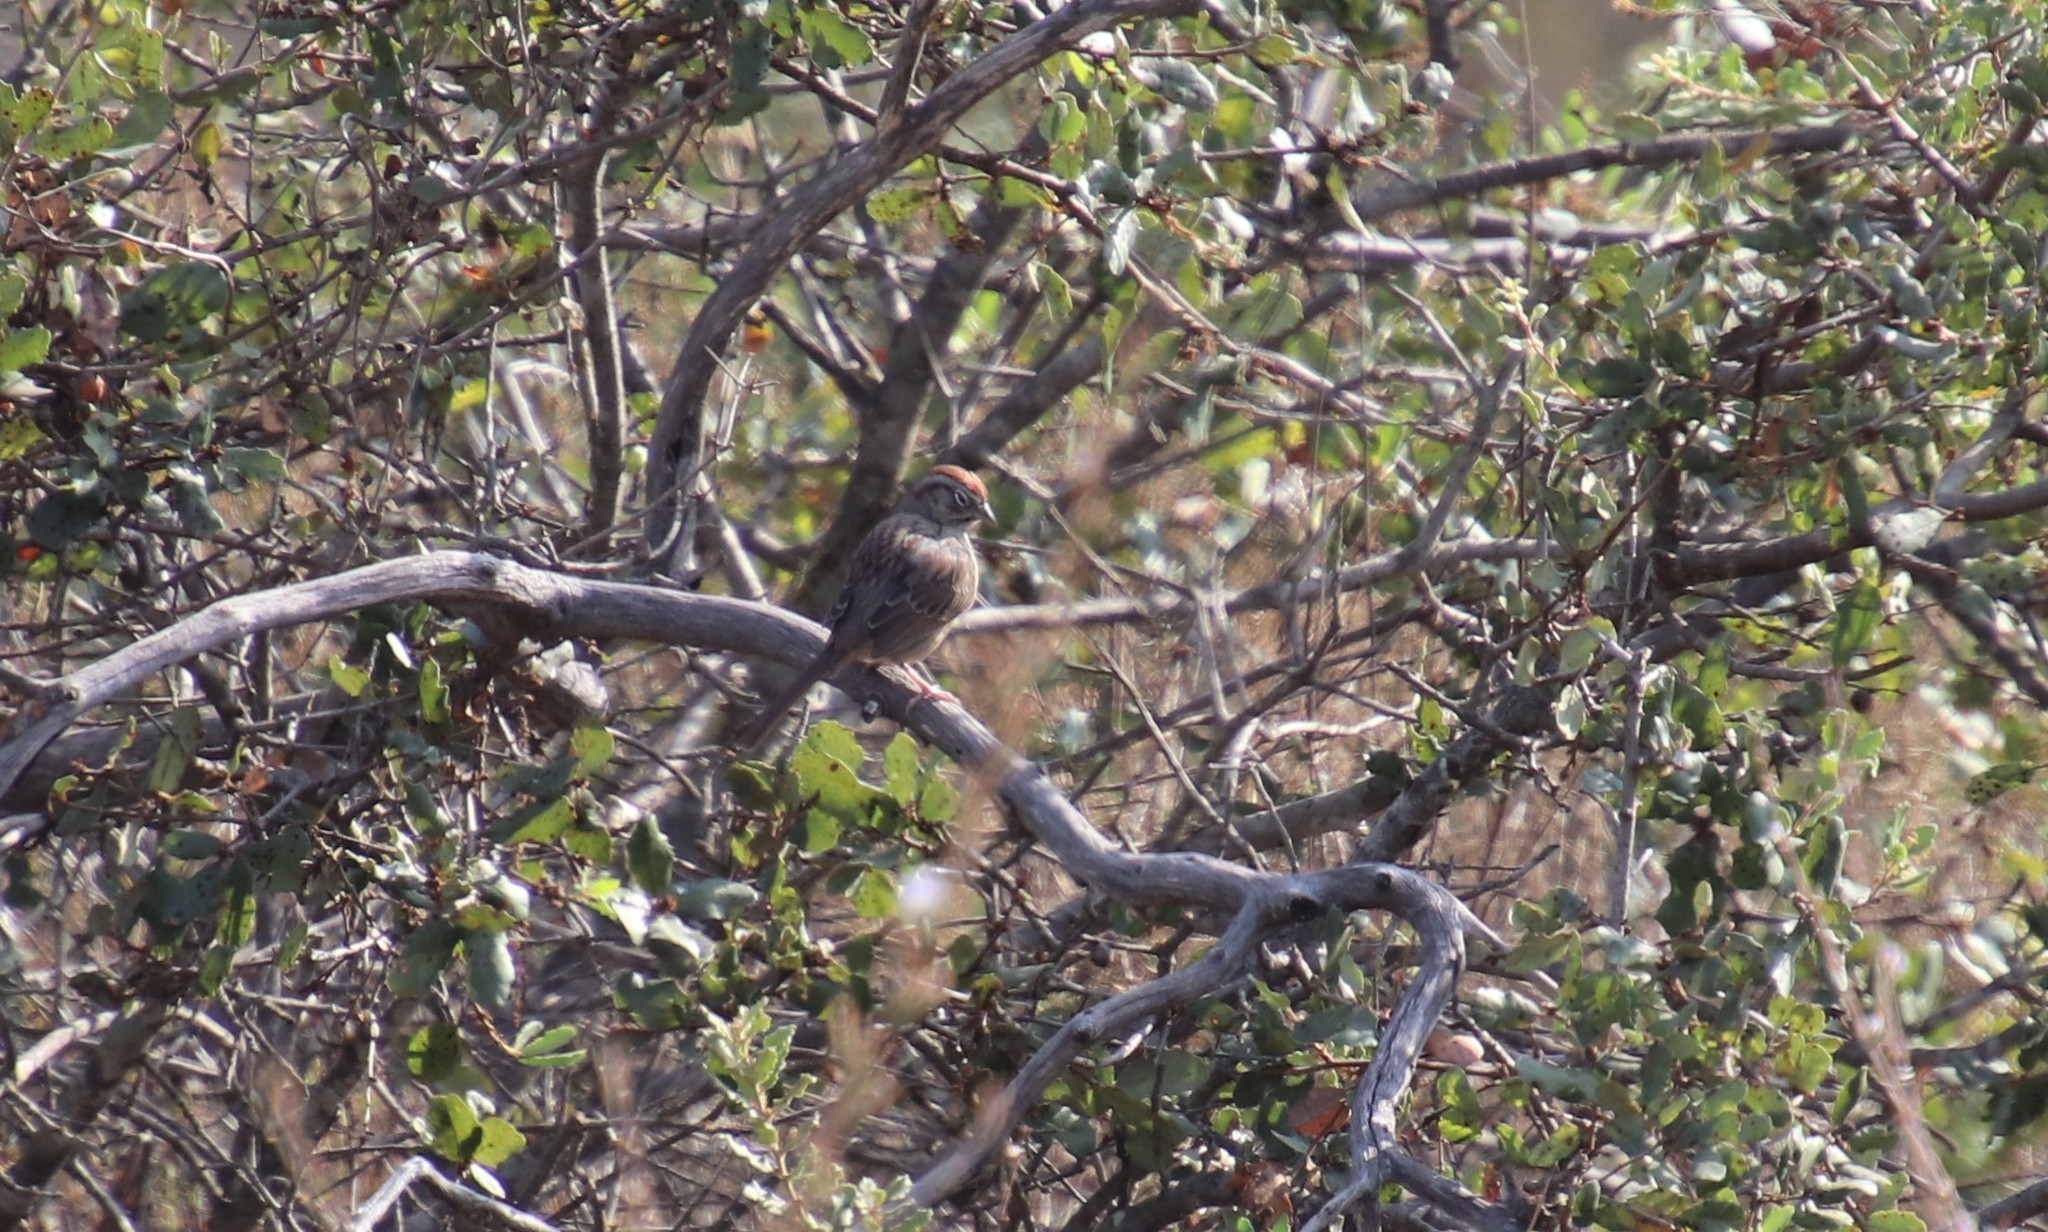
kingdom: Animalia
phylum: Chordata
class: Aves
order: Passeriformes
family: Passerellidae
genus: Aimophila
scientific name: Aimophila ruficeps
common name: Rufous-crowned sparrow
